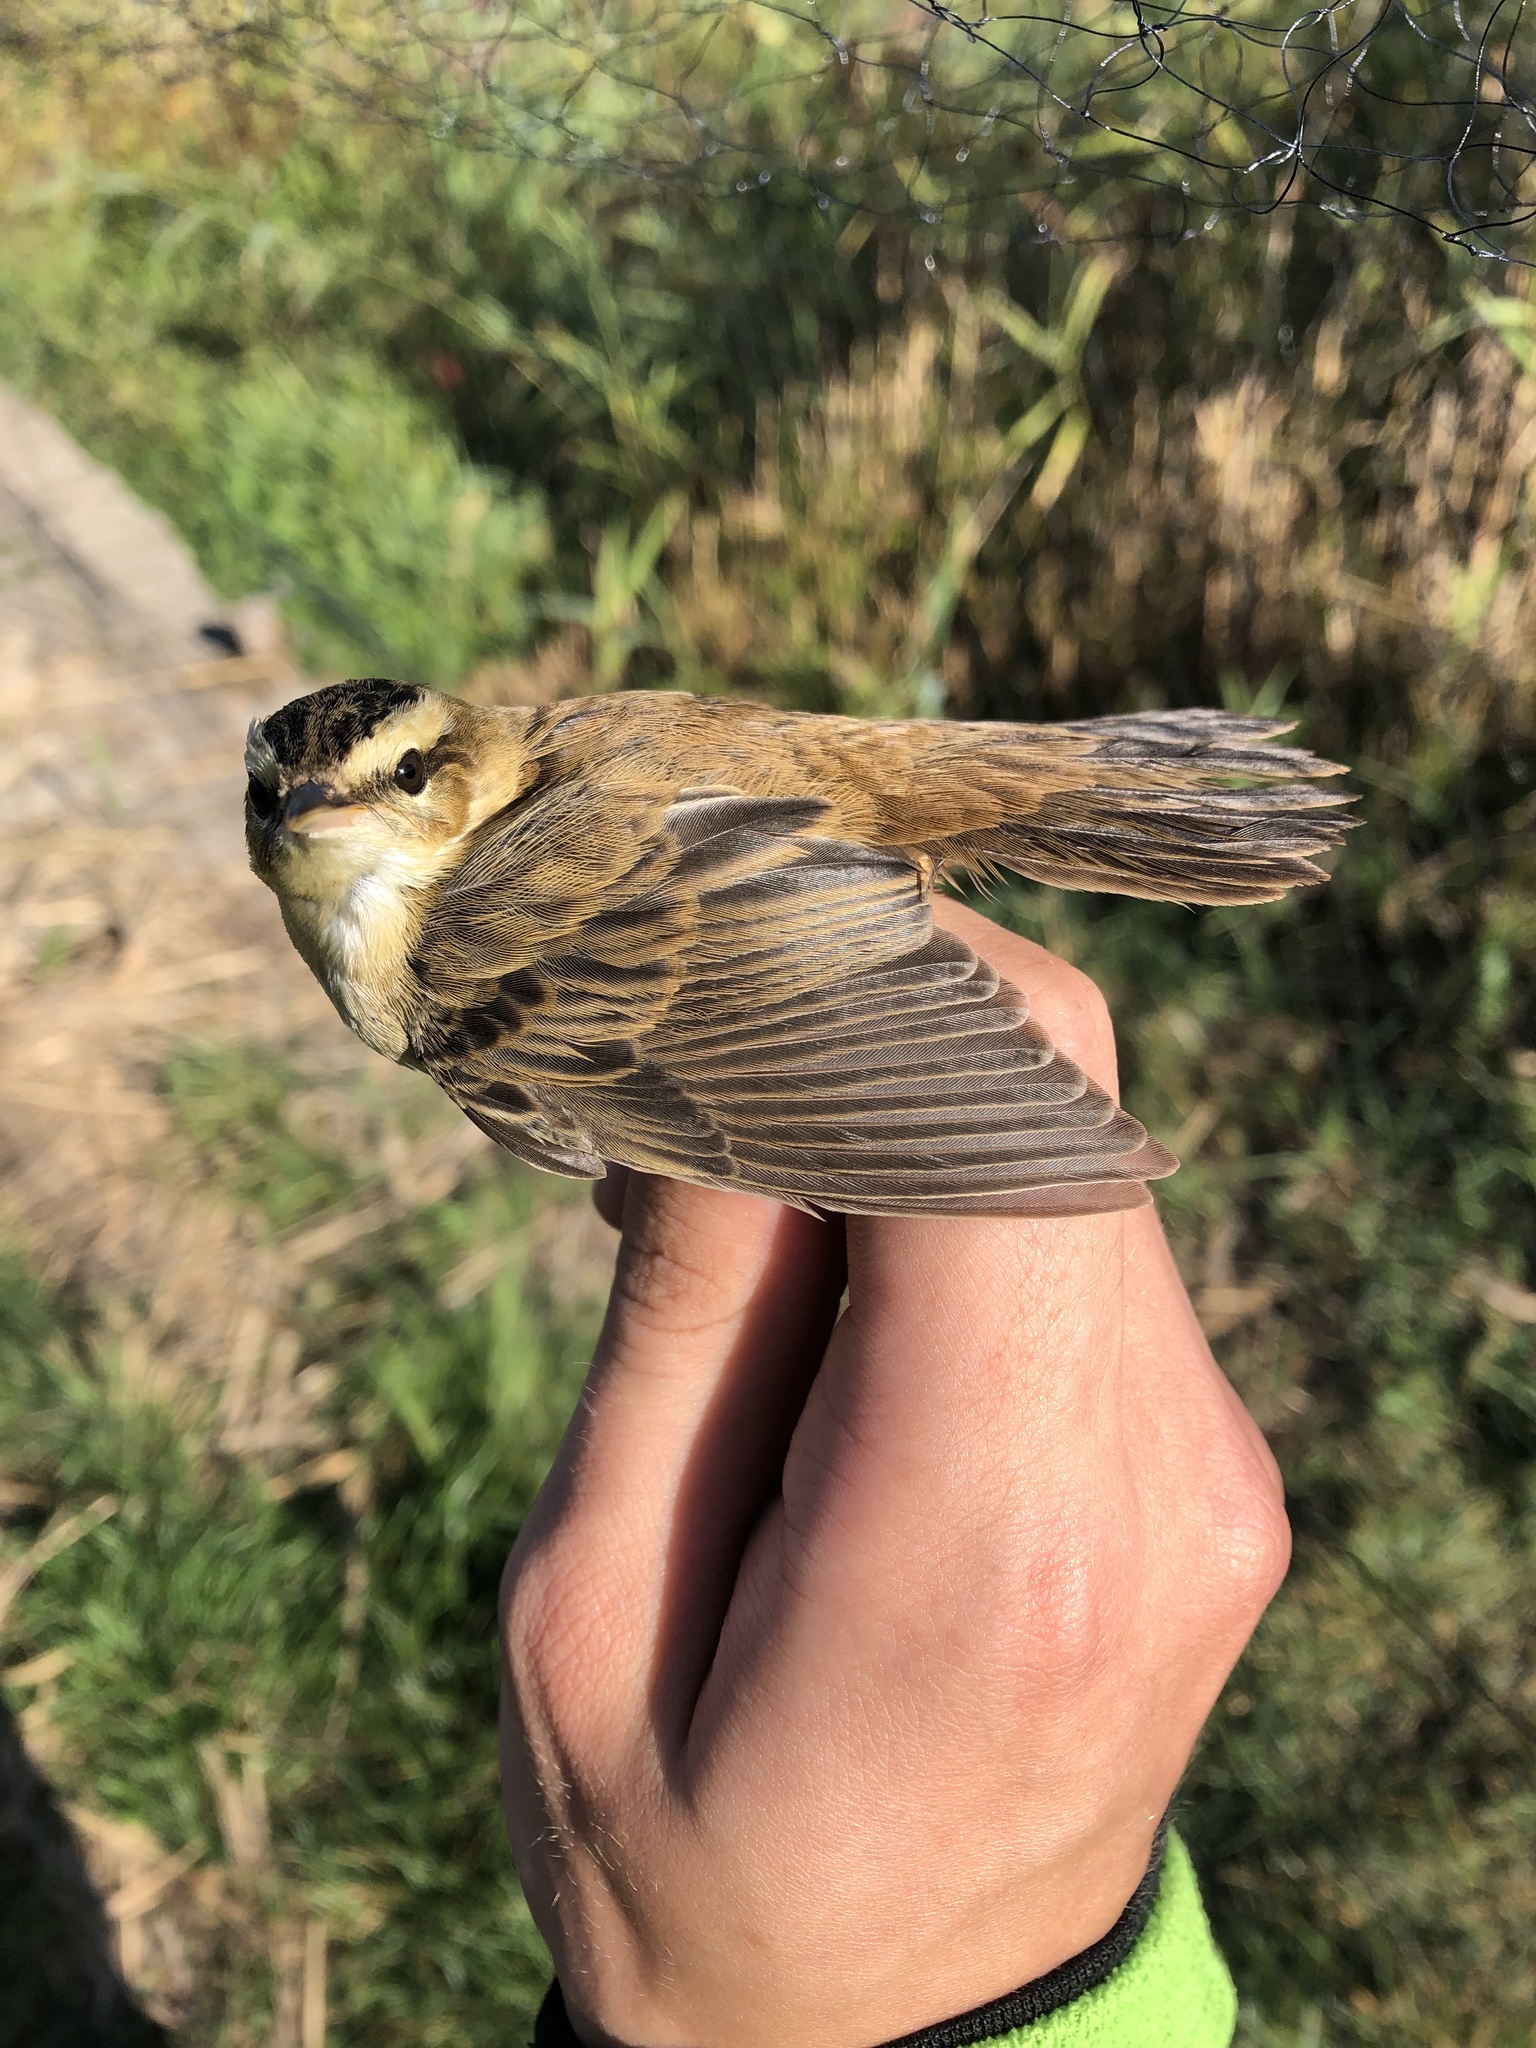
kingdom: Animalia
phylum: Chordata
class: Aves
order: Passeriformes
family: Acrocephalidae
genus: Acrocephalus
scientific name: Acrocephalus schoenobaenus
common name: Sedge warbler
